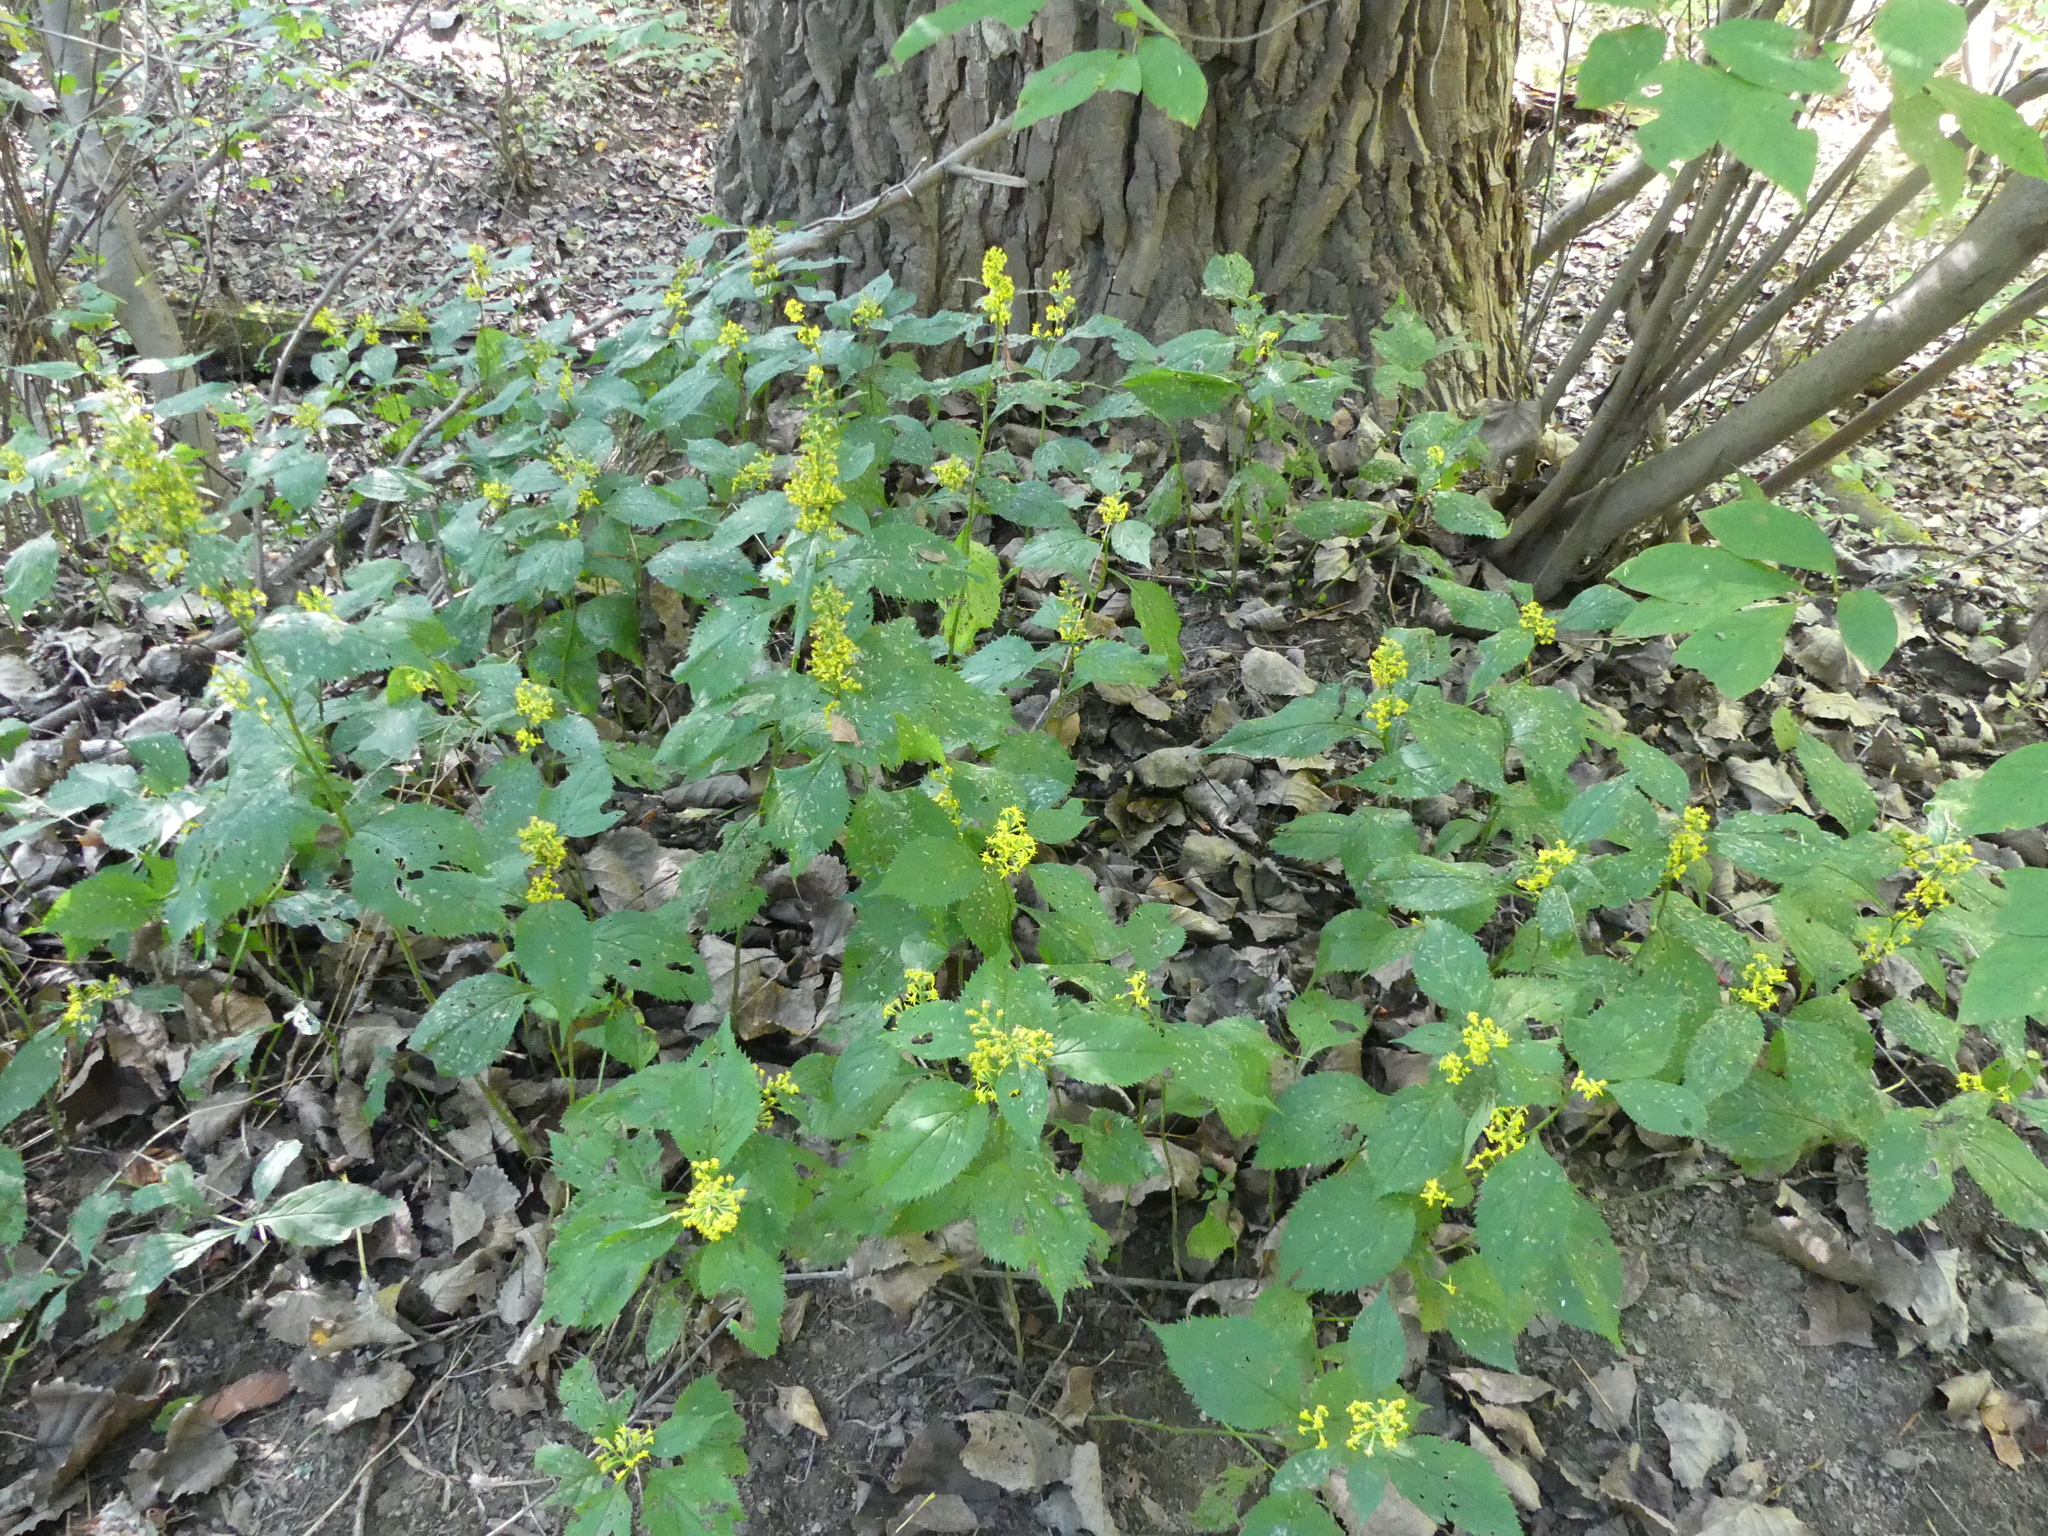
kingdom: Plantae
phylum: Tracheophyta
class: Magnoliopsida
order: Asterales
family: Asteraceae
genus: Solidago
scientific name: Solidago flexicaulis
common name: Zig-zag goldenrod
